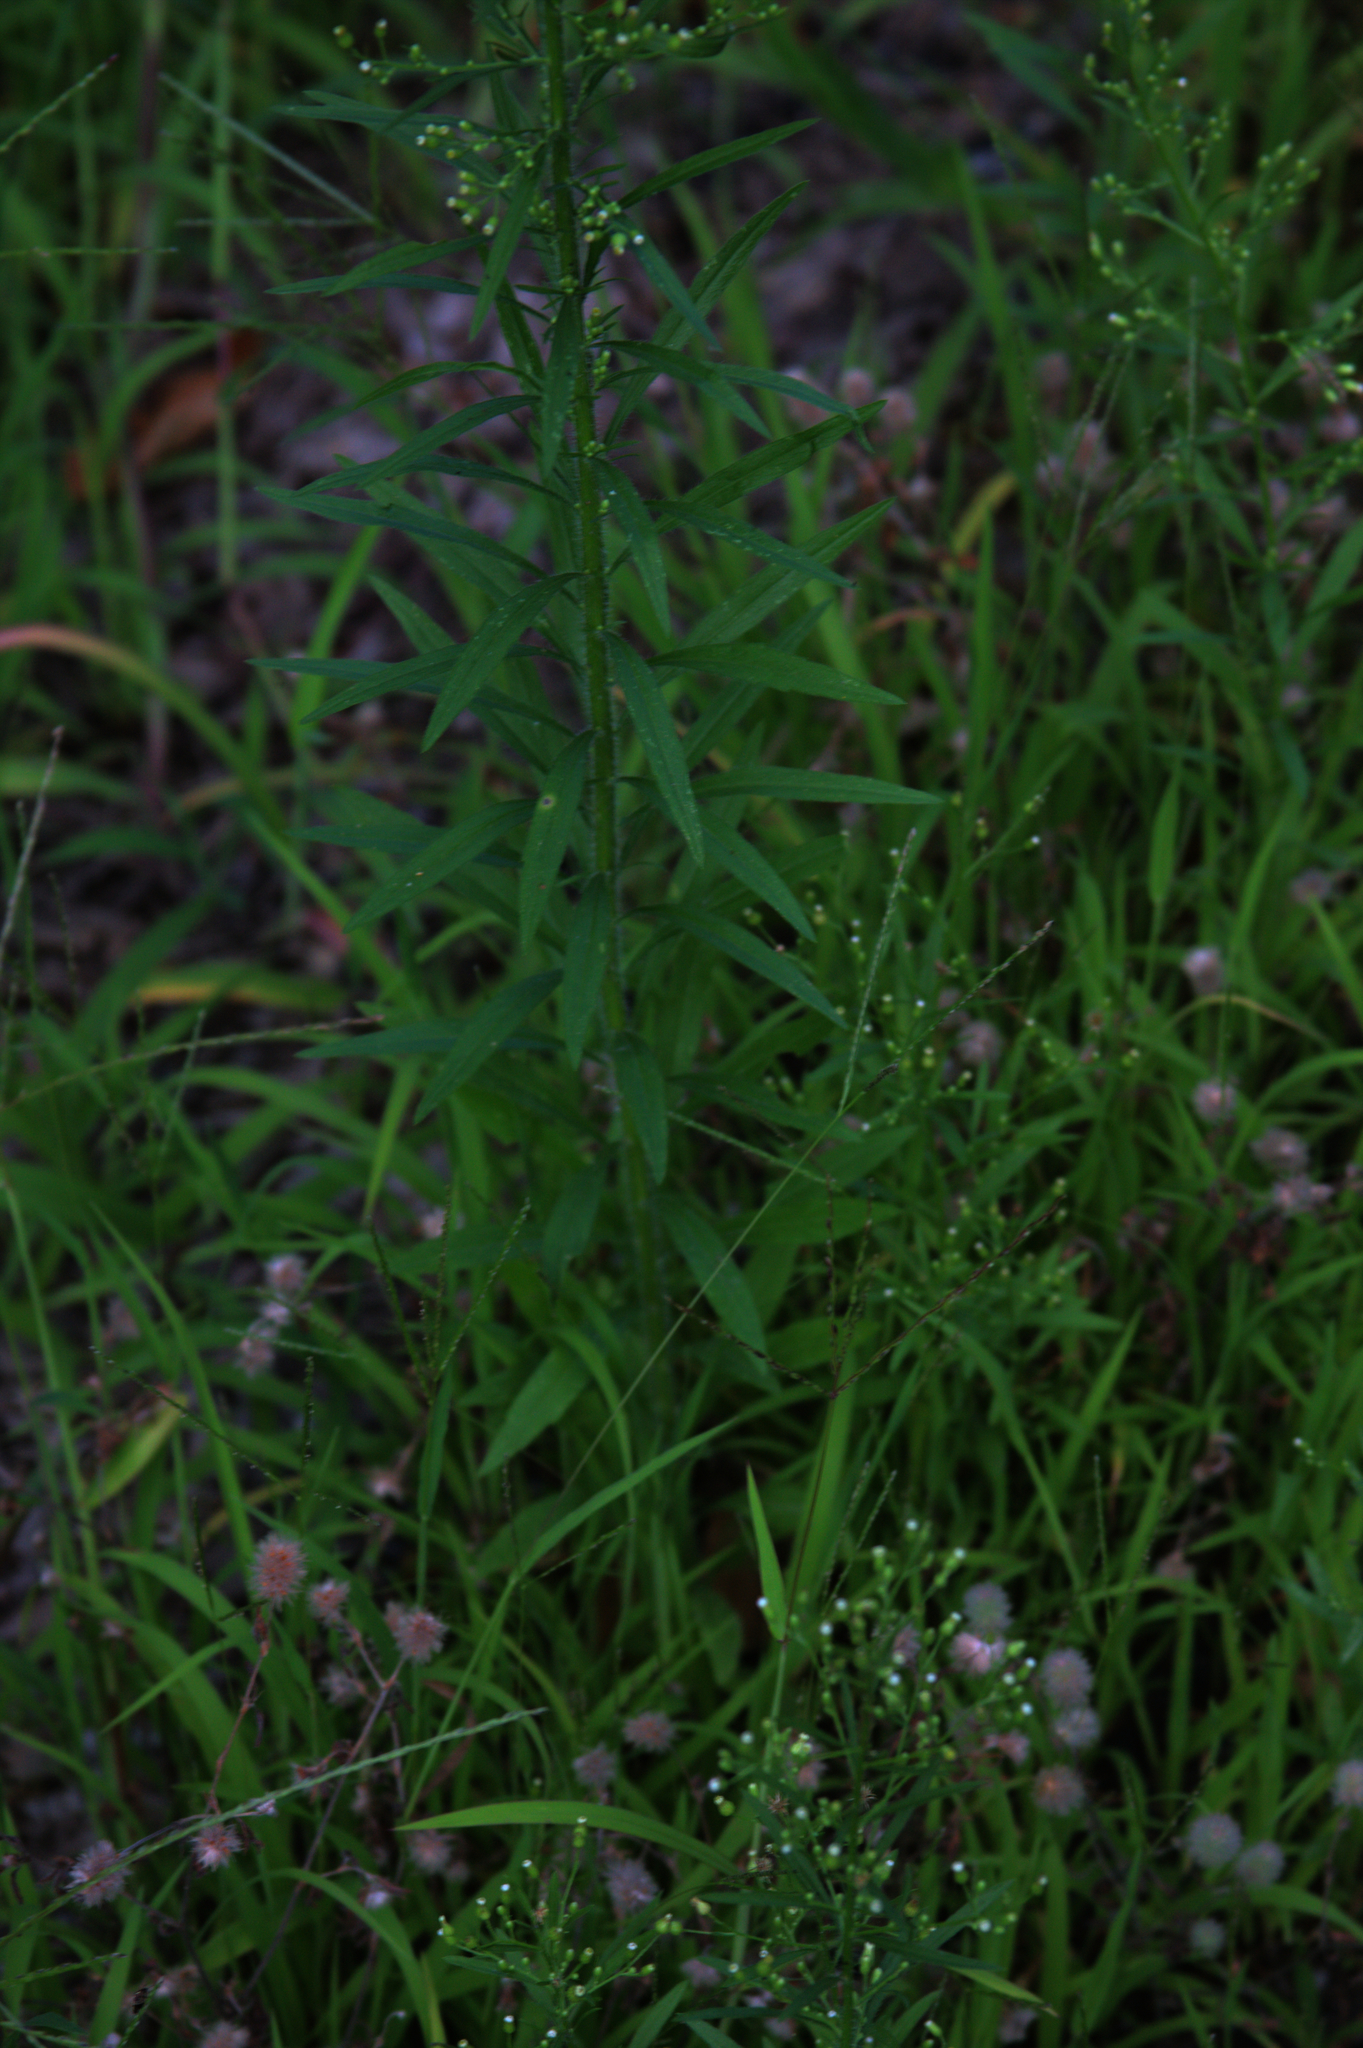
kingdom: Plantae
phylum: Tracheophyta
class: Magnoliopsida
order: Asterales
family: Asteraceae
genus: Erigeron
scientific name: Erigeron canadensis
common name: Canadian fleabane
